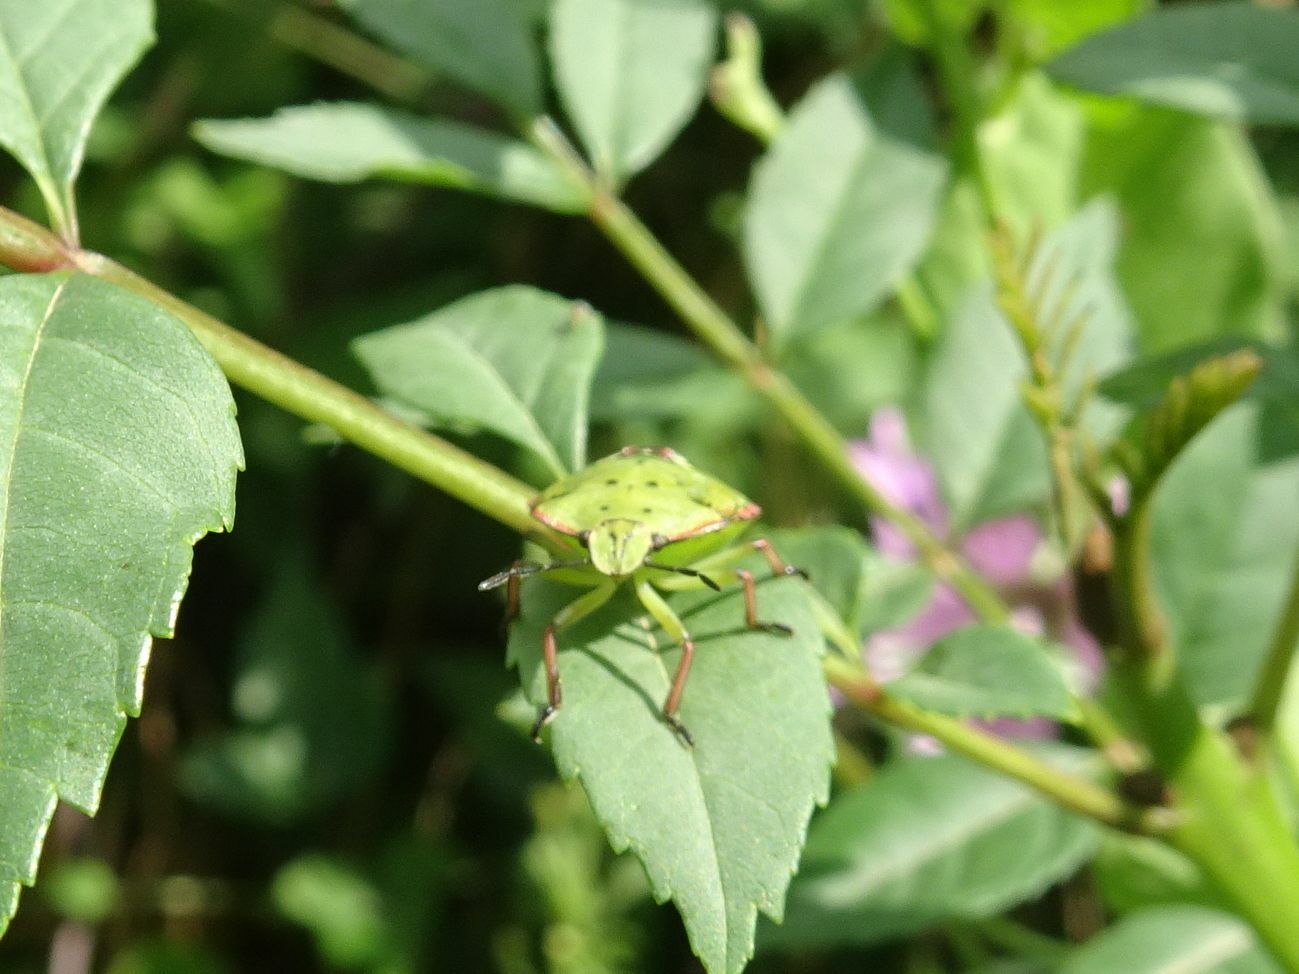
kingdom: Animalia
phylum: Arthropoda
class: Insecta
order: Hemiptera
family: Pentatomidae
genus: Nezara
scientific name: Nezara viridula
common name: Southern green stink bug
